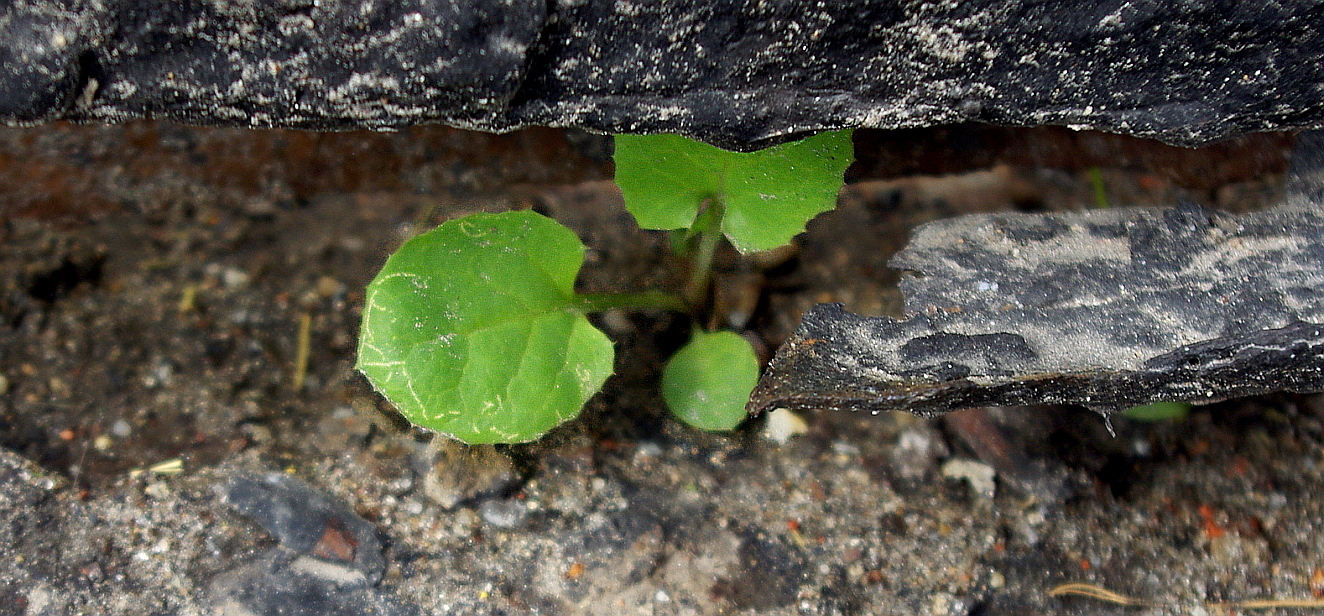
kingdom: Plantae
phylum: Tracheophyta
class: Magnoliopsida
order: Asterales
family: Asteraceae
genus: Sonchus
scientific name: Sonchus
